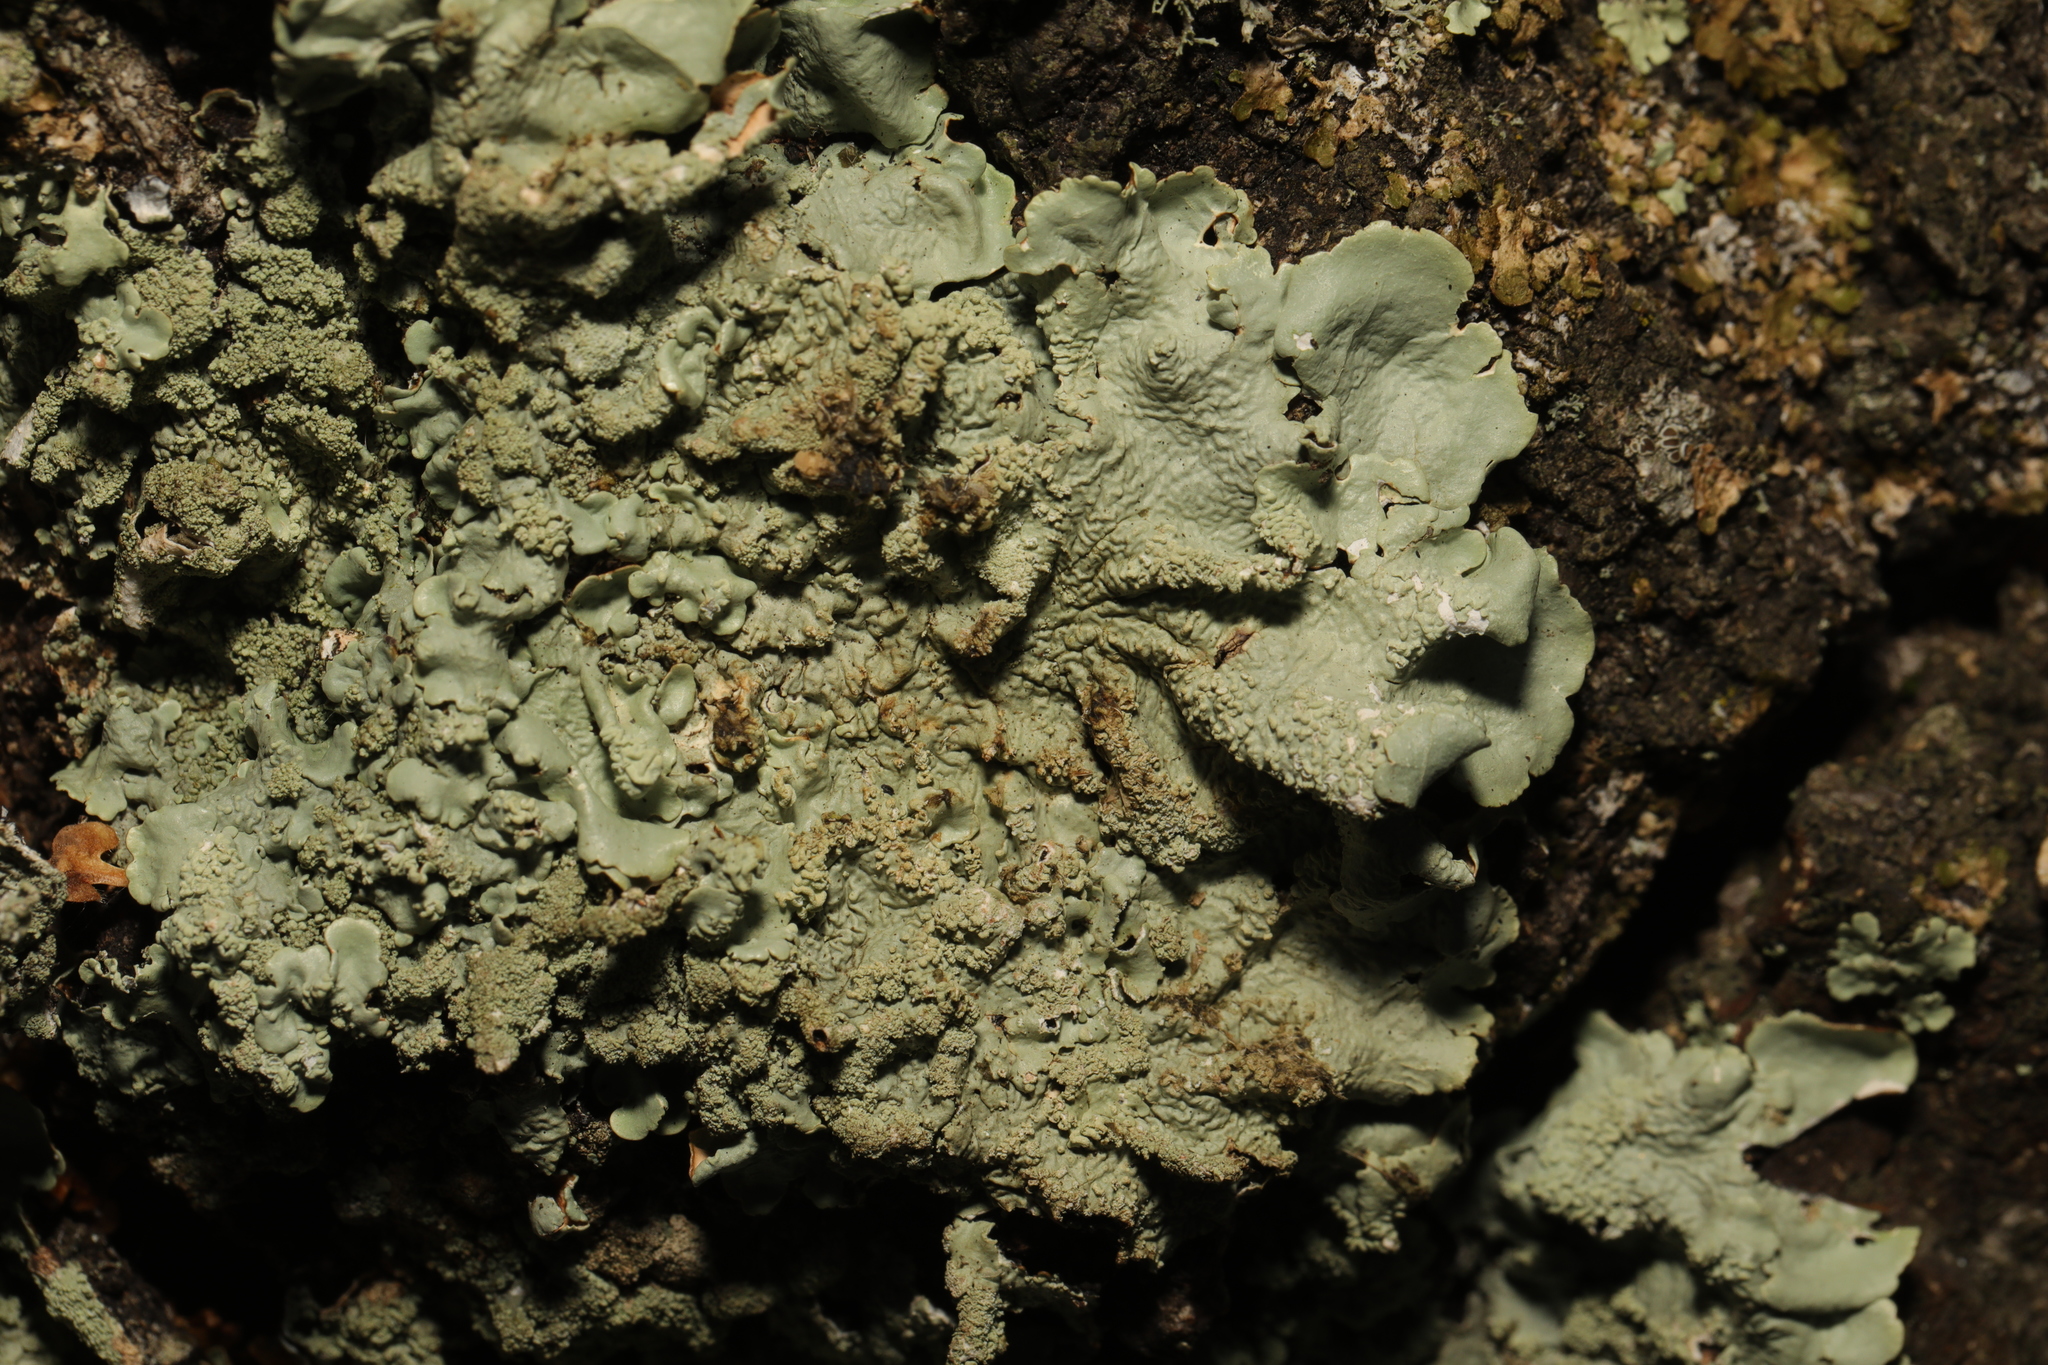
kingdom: Fungi
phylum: Ascomycota
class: Lecanoromycetes
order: Lecanorales
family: Parmeliaceae
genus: Flavoparmelia
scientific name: Flavoparmelia caperata
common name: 40-mile per hour lichen
